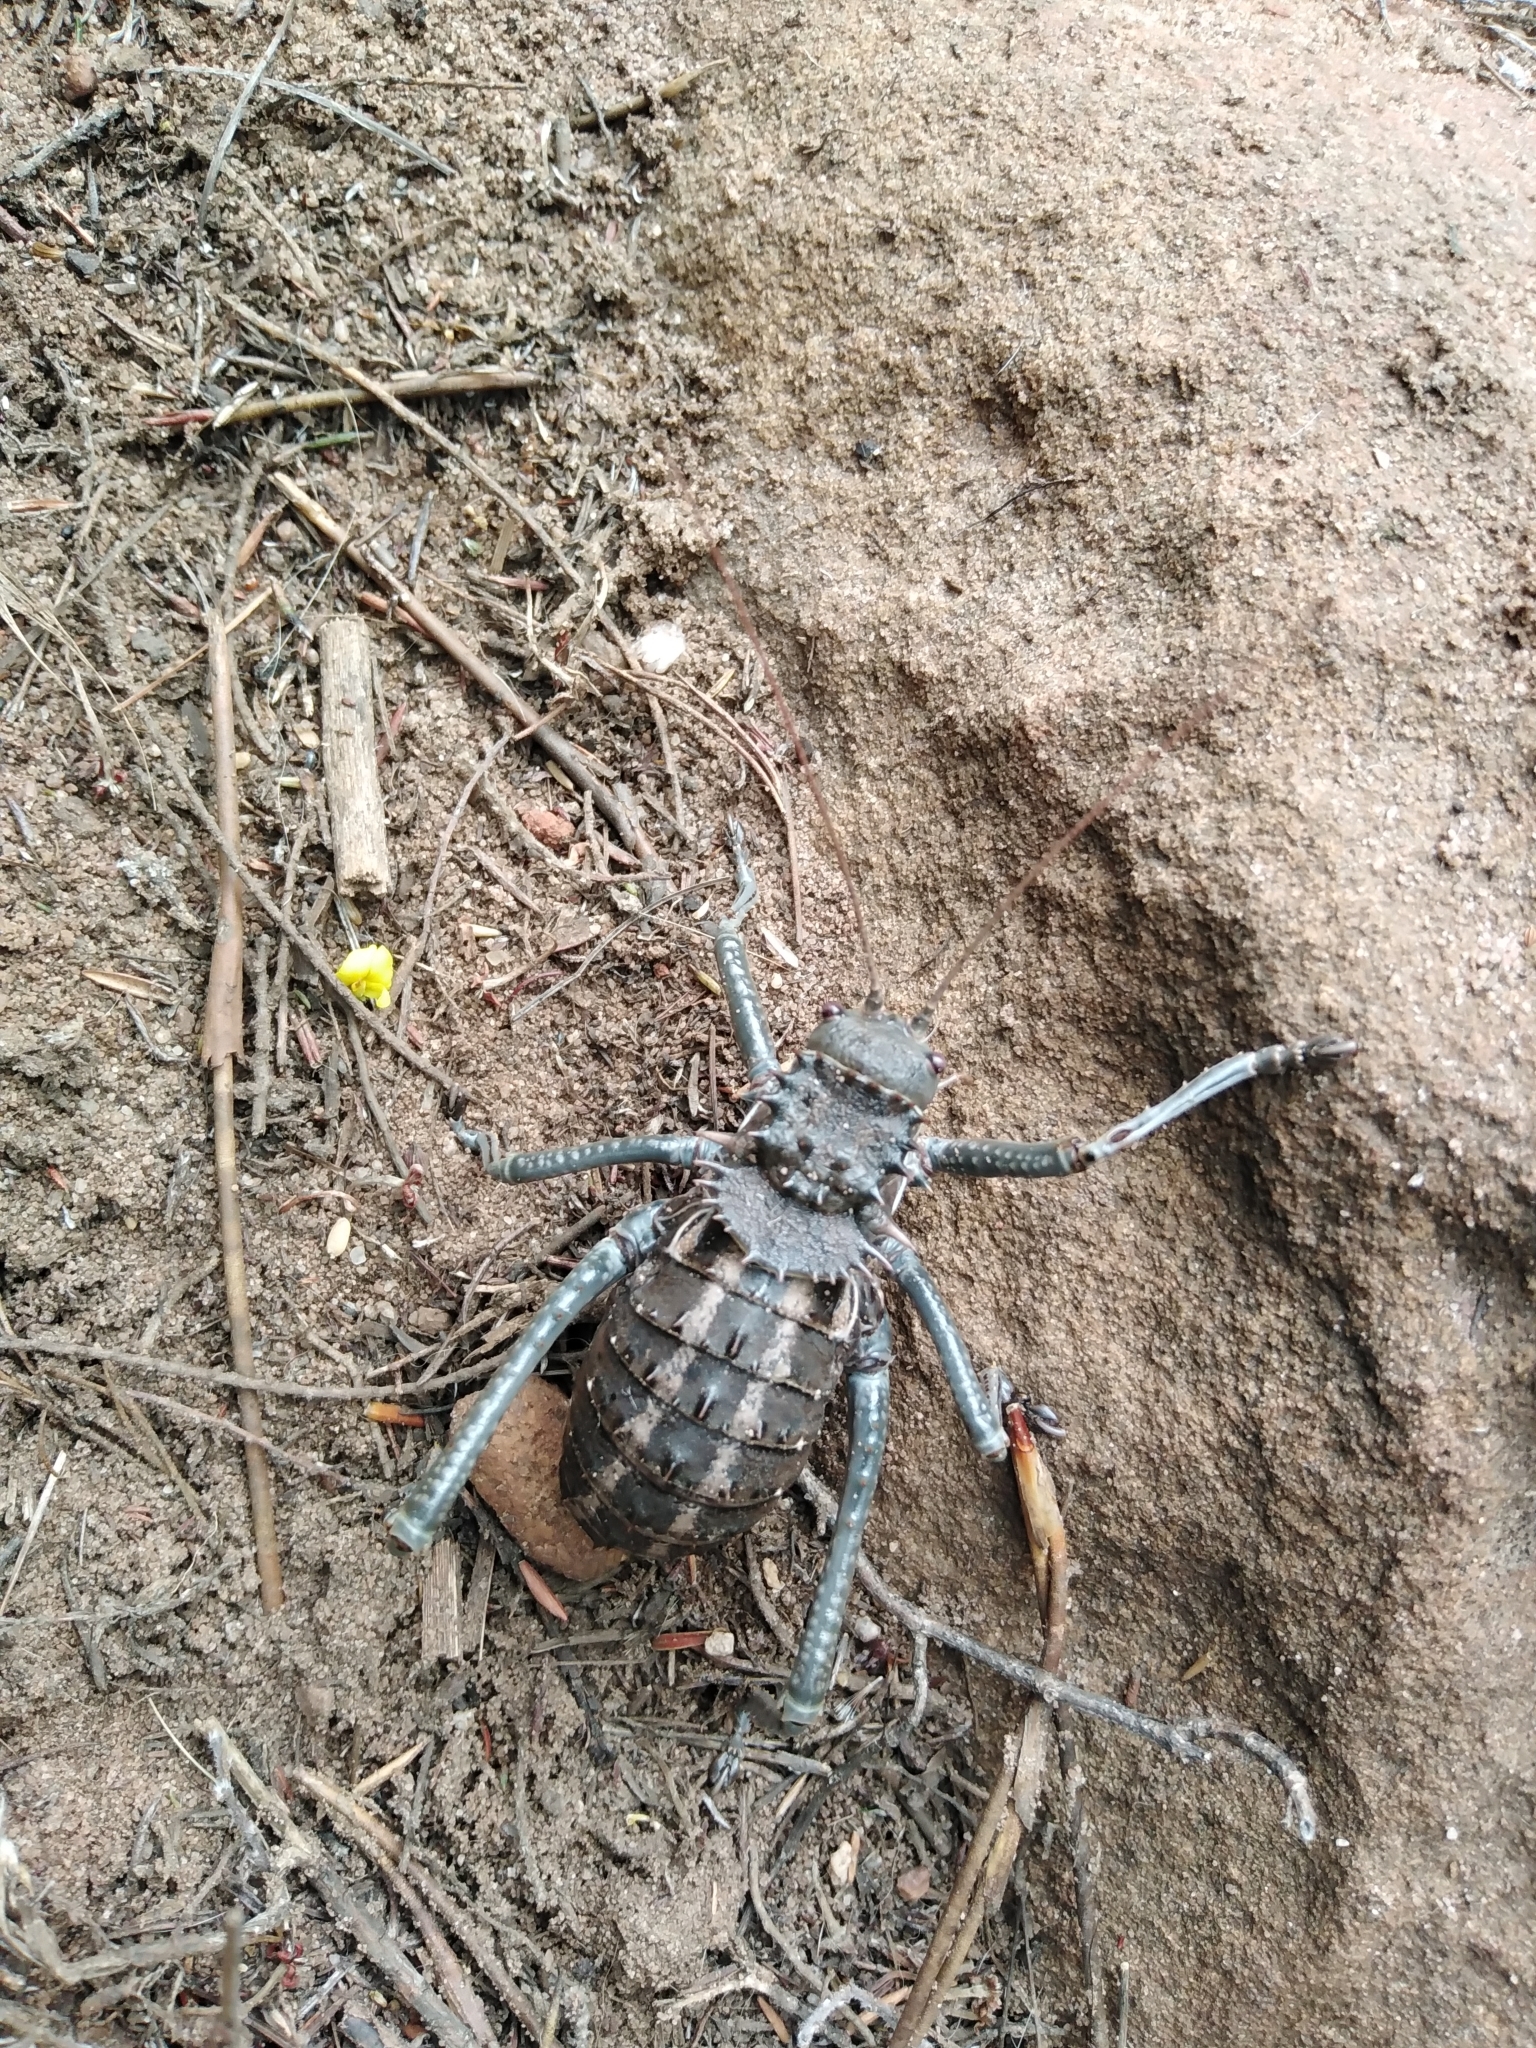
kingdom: Animalia
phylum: Arthropoda
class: Insecta
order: Orthoptera
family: Tettigoniidae
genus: Hetrodes
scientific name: Hetrodes pupus
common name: Koringkriek
